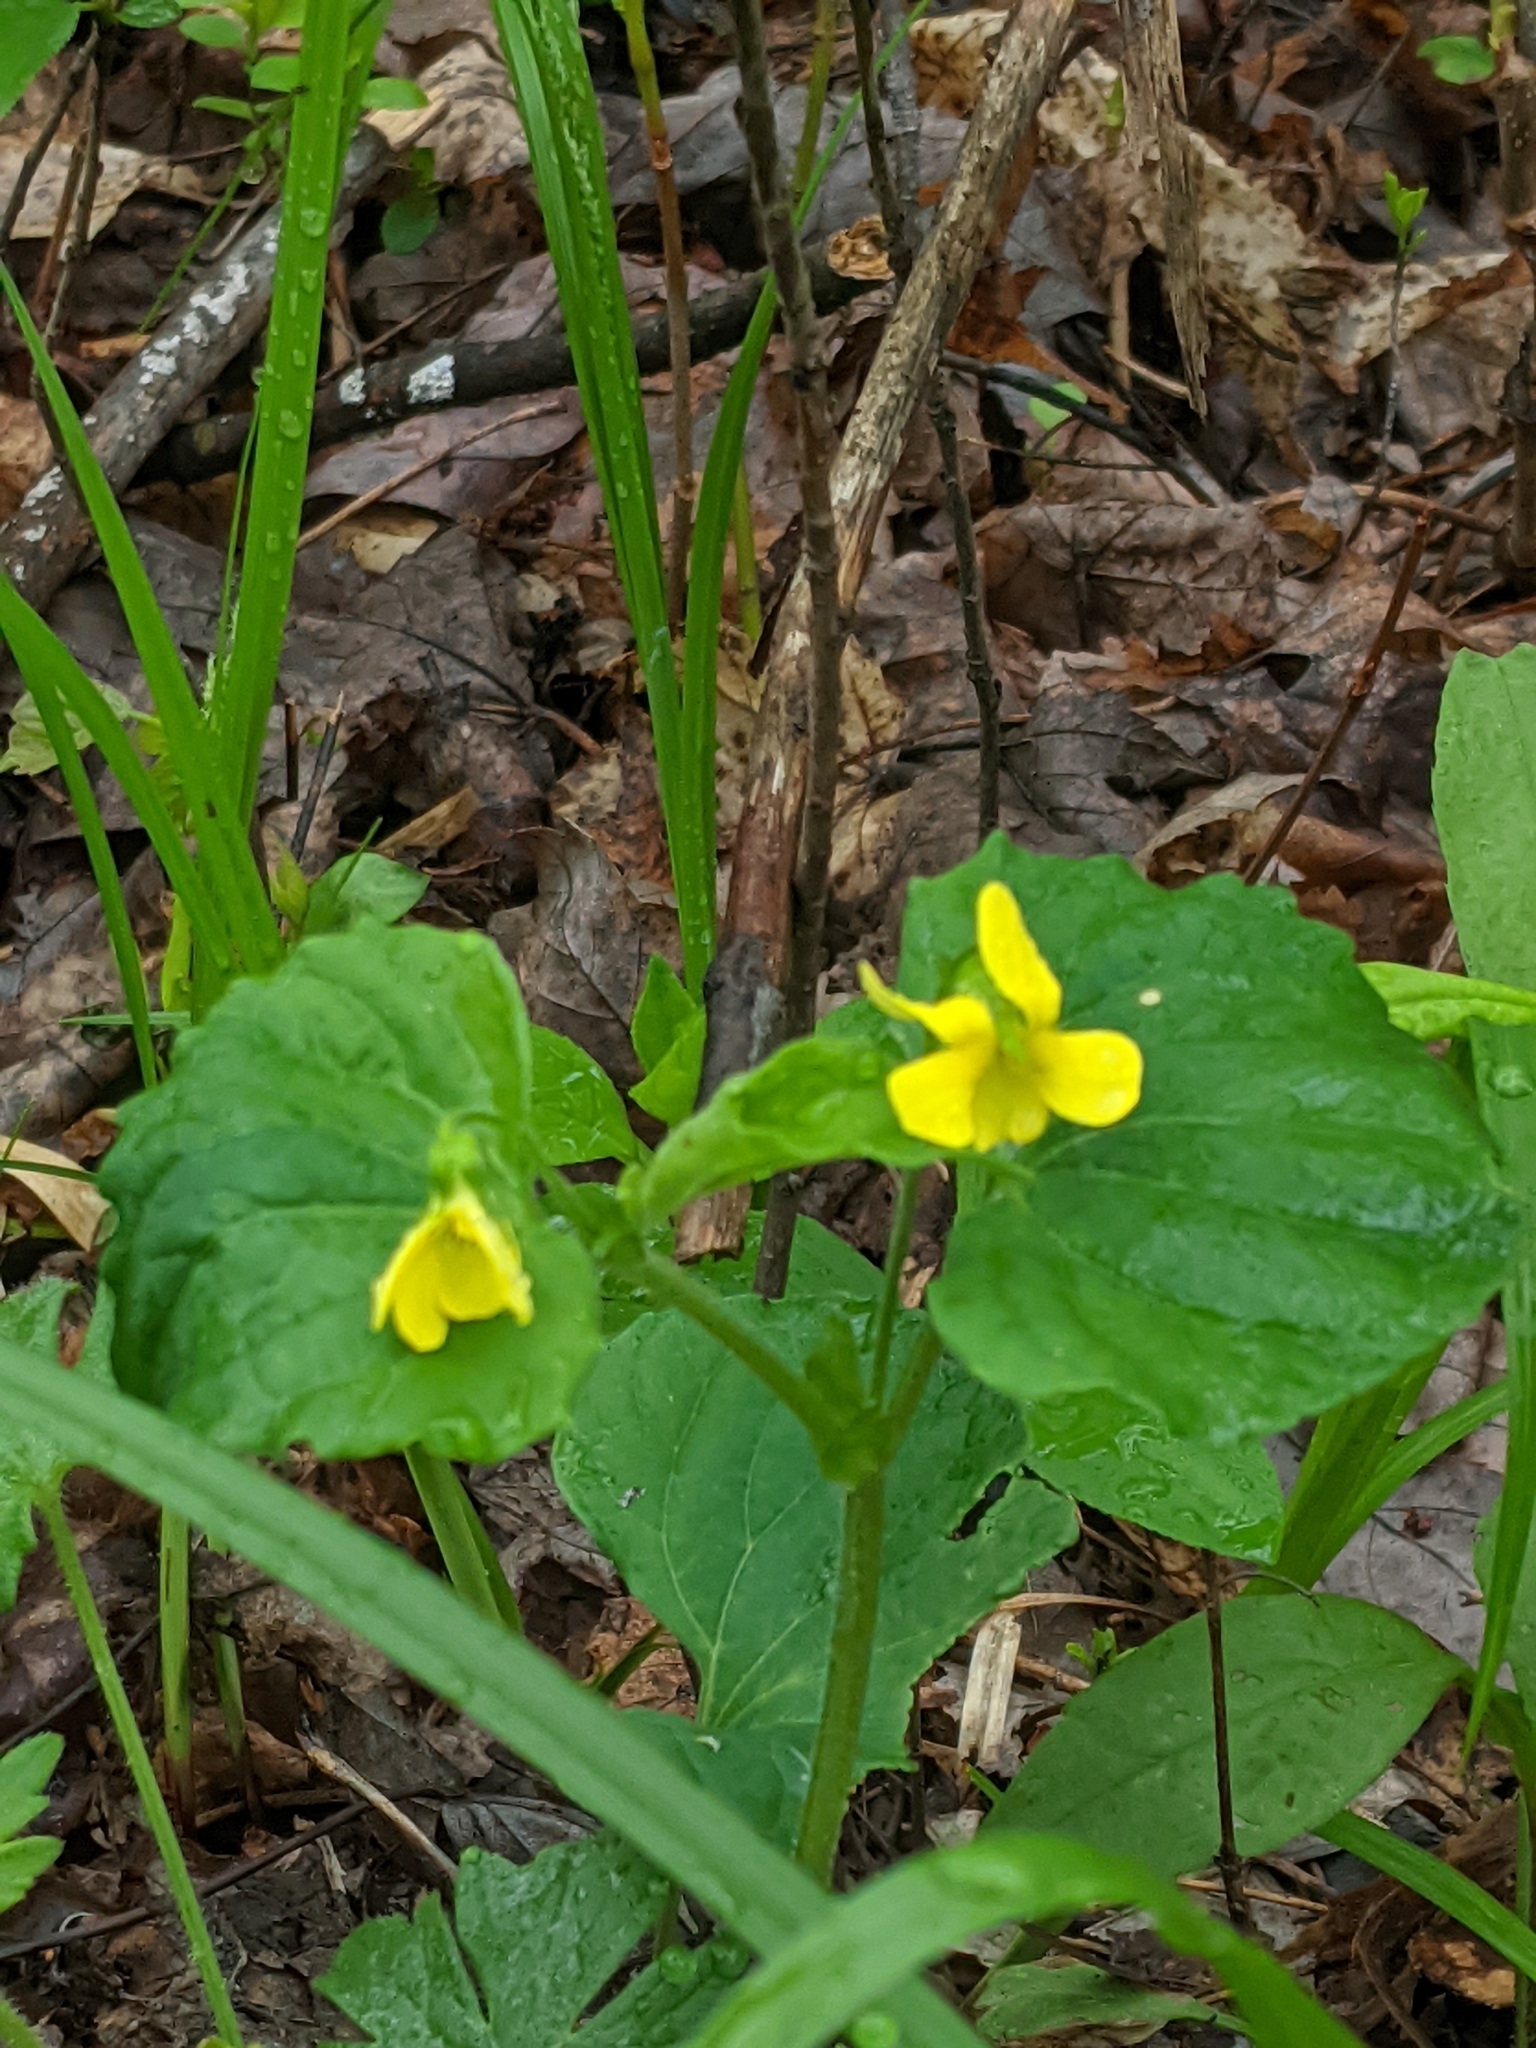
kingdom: Plantae
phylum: Tracheophyta
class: Magnoliopsida
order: Malpighiales
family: Violaceae
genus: Viola
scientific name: Viola eriocarpa
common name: Smooth yellow violet
